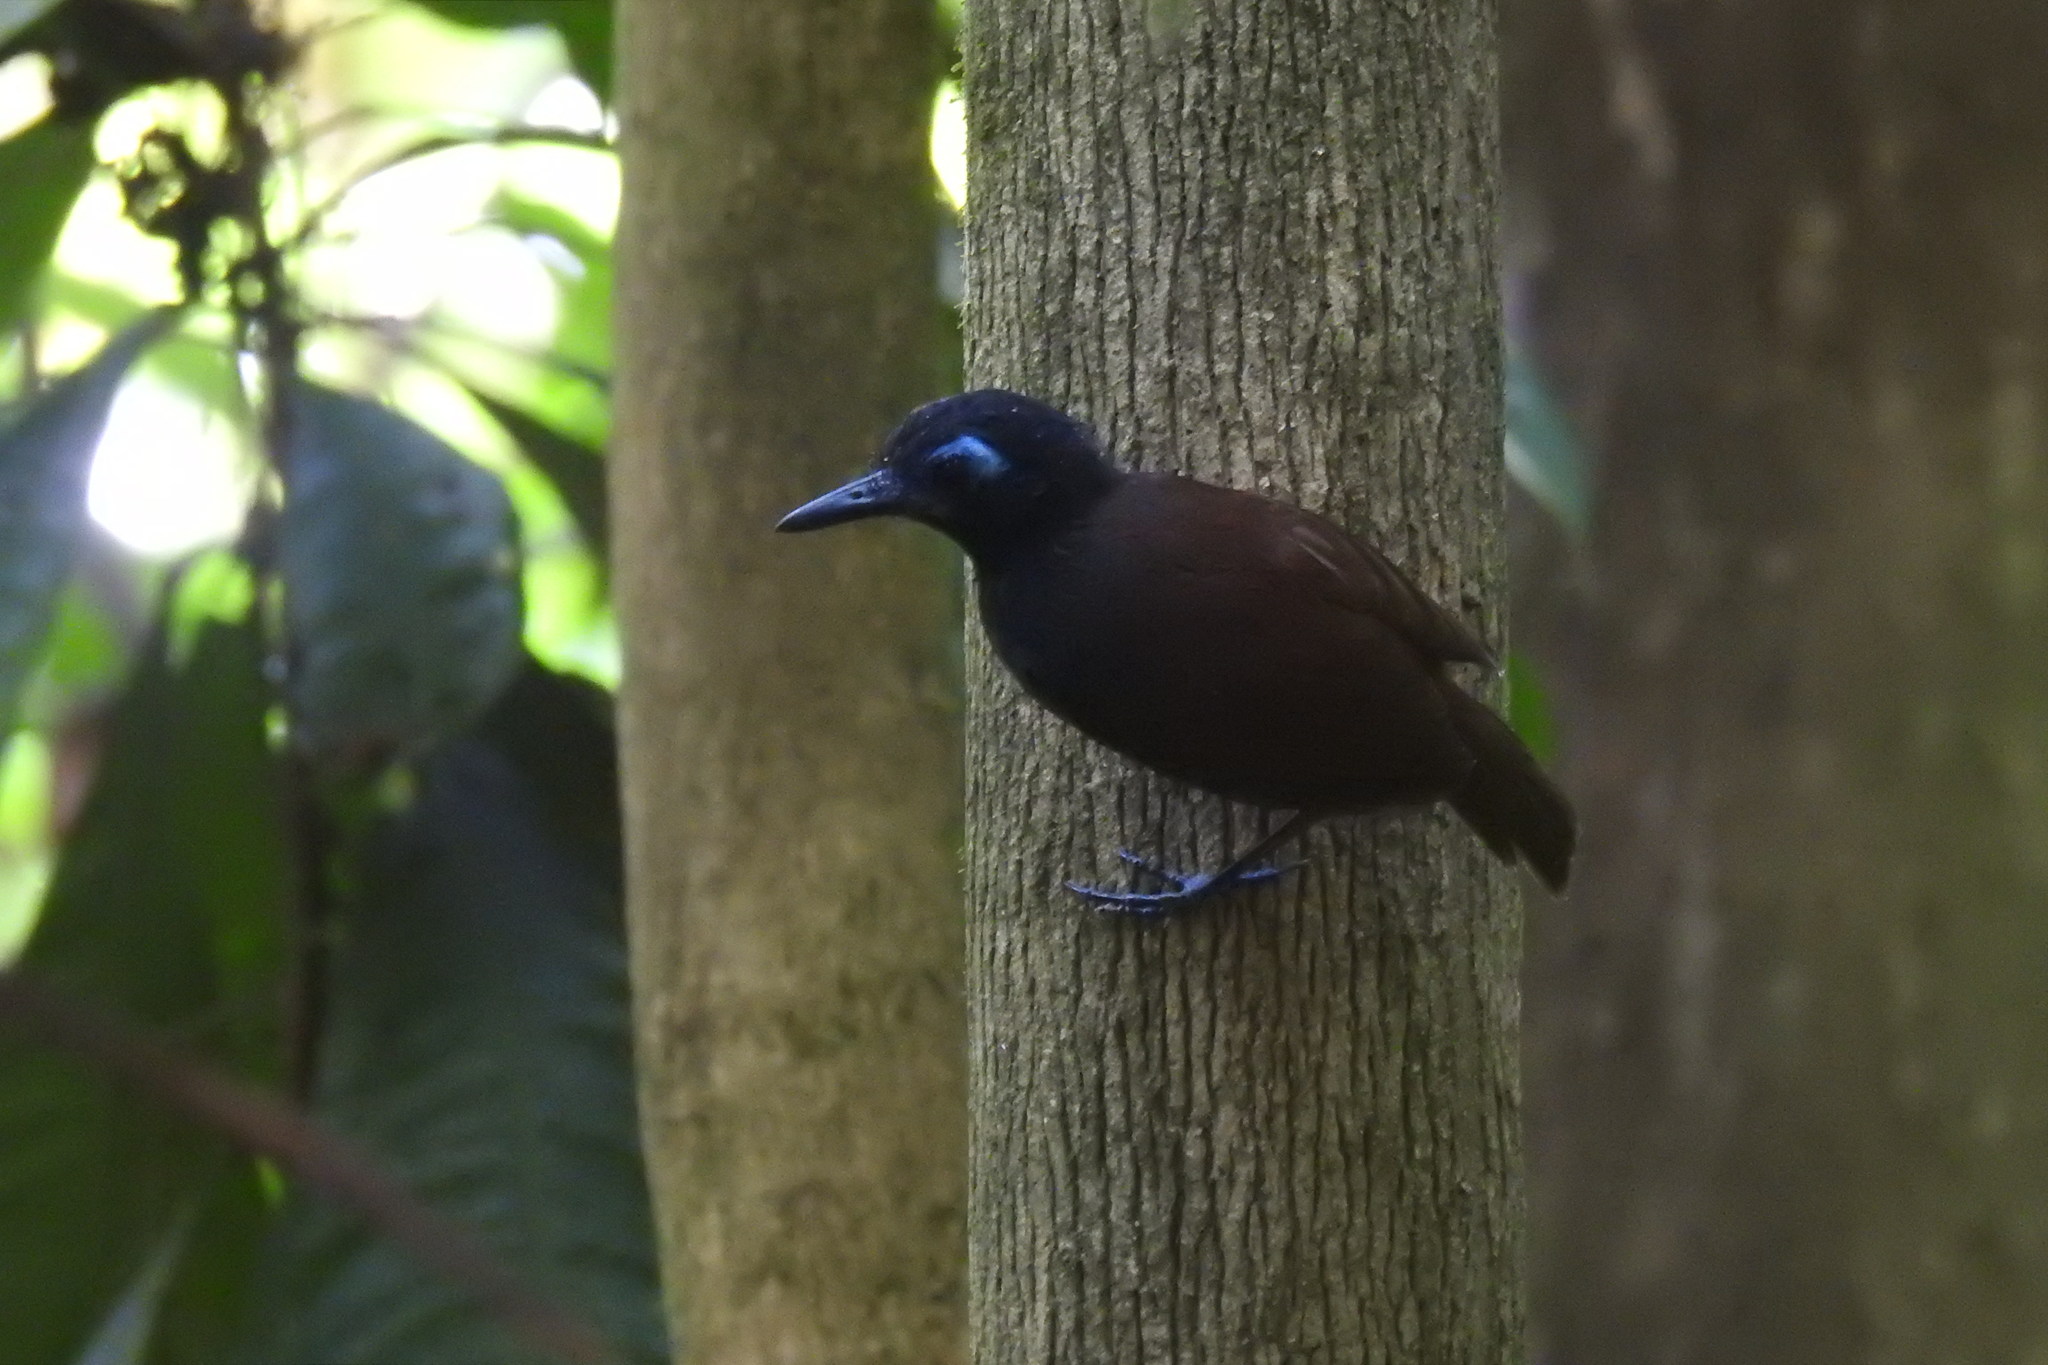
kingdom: Animalia
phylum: Chordata
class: Aves
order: Passeriformes
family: Thamnophilidae
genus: Myrmeciza
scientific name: Myrmeciza exsul
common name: Chestnut-backed antbird
